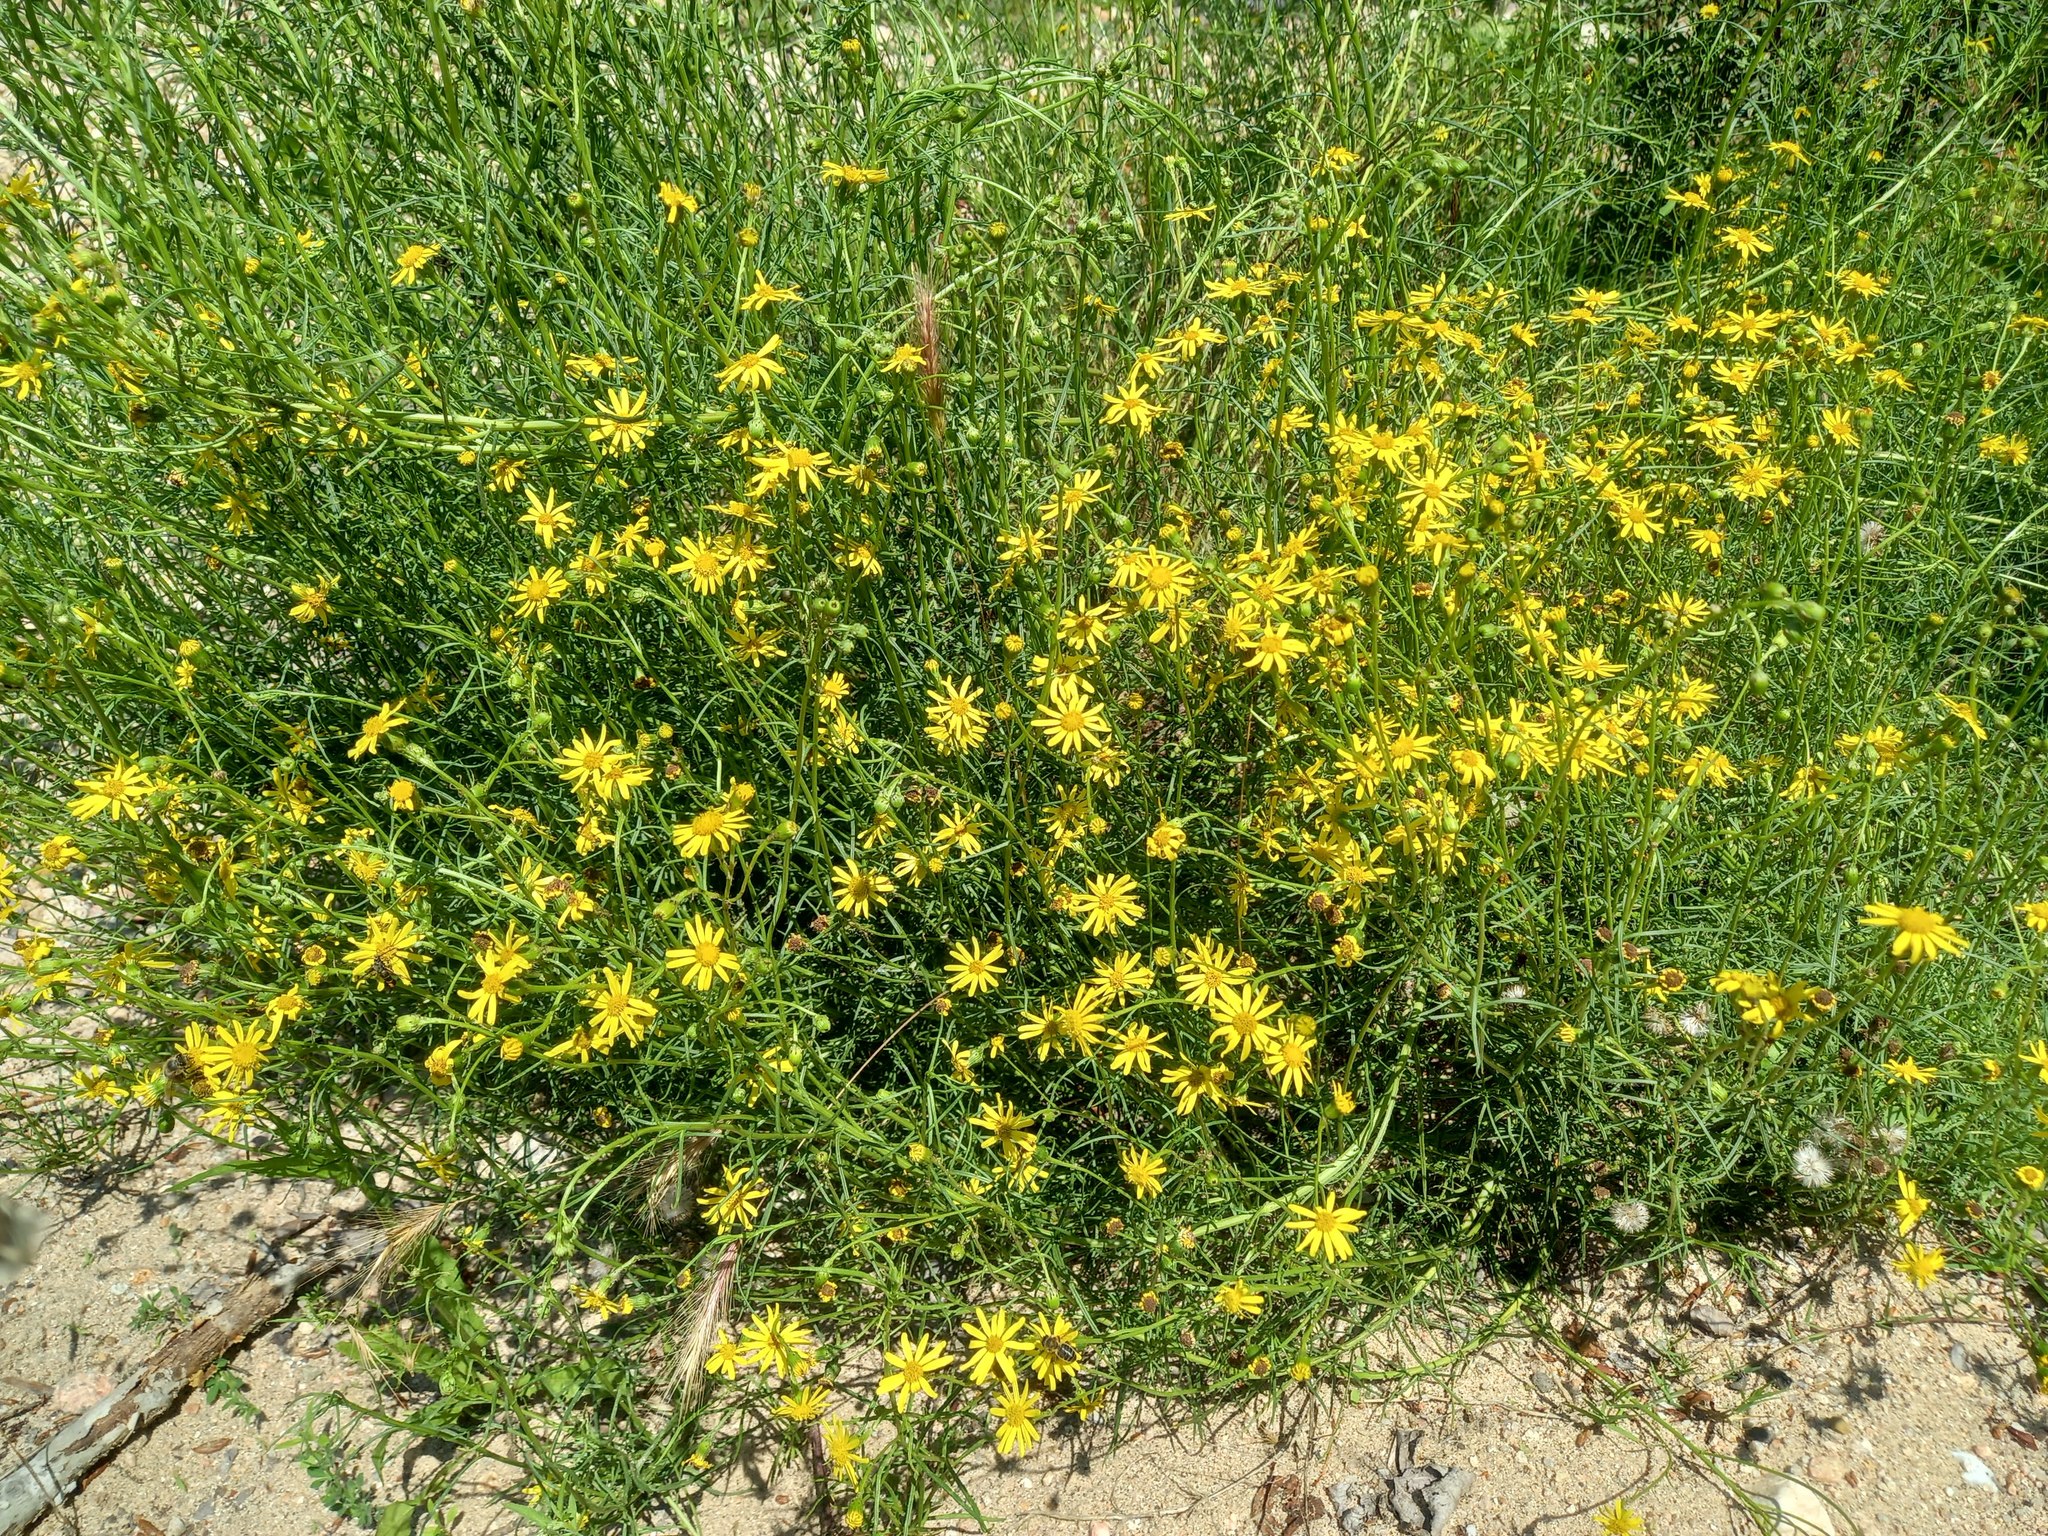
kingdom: Plantae
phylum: Tracheophyta
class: Magnoliopsida
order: Asterales
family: Asteraceae
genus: Senecio
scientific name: Senecio inaequidens
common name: Narrow-leaved ragwort
